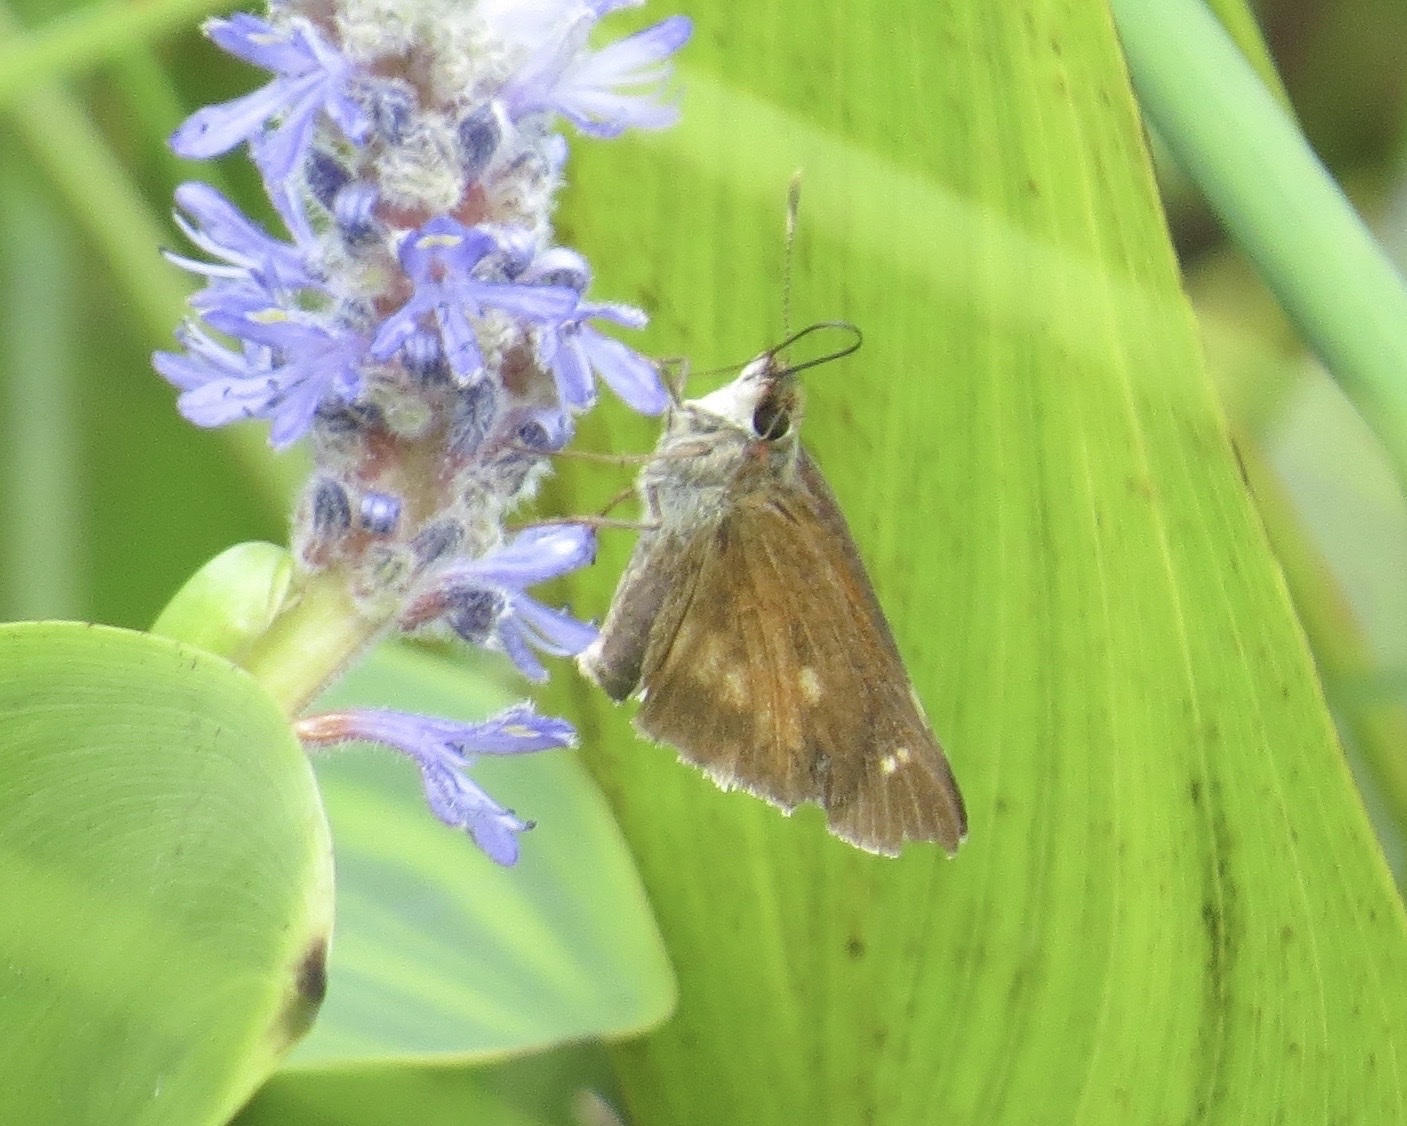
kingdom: Animalia
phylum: Arthropoda
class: Insecta
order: Lepidoptera
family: Hesperiidae
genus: Poanes
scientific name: Poanes viator
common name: Broad-winged skipper
